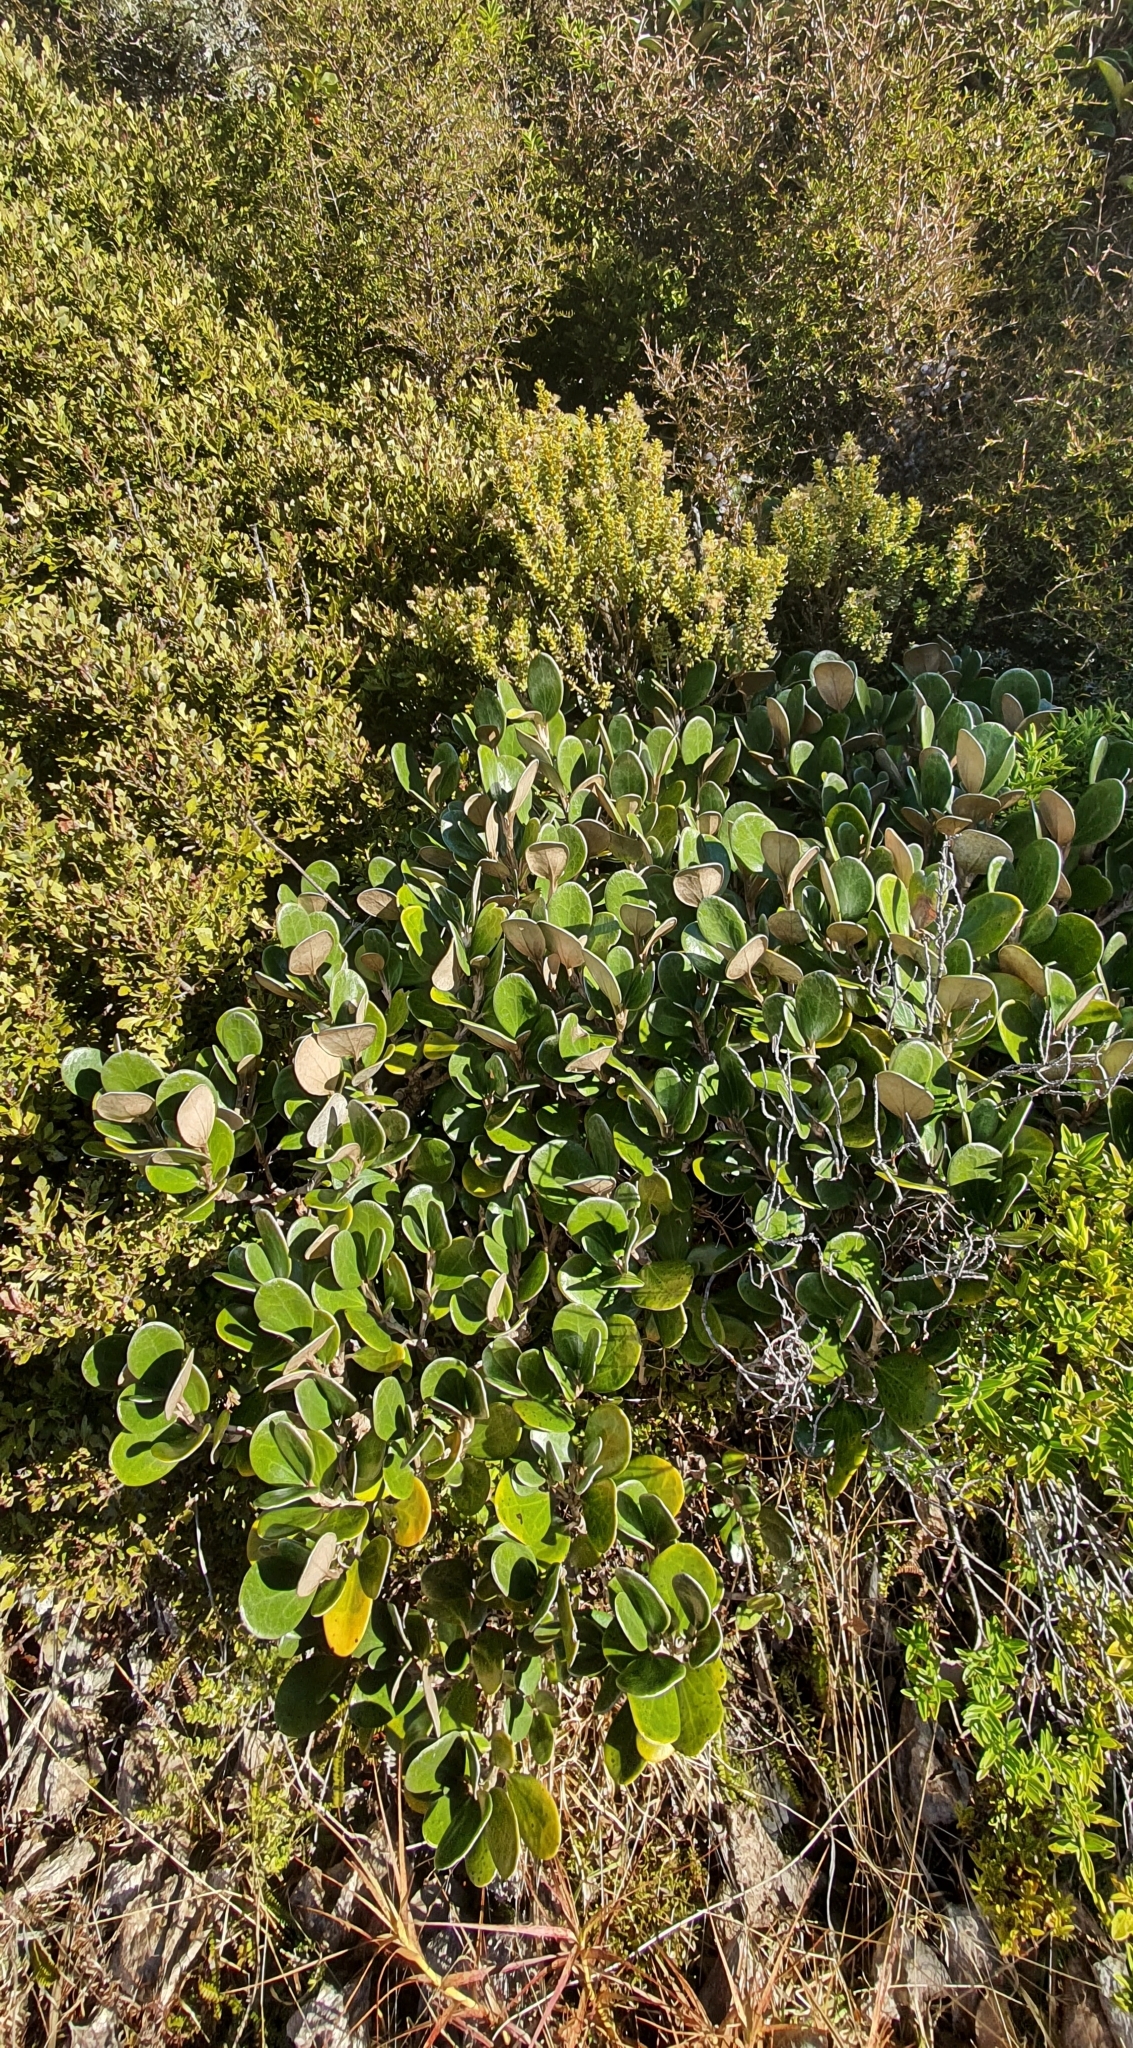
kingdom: Plantae
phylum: Tracheophyta
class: Magnoliopsida
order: Asterales
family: Asteraceae
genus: Brachyglottis
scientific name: Brachyglottis bidwillii
